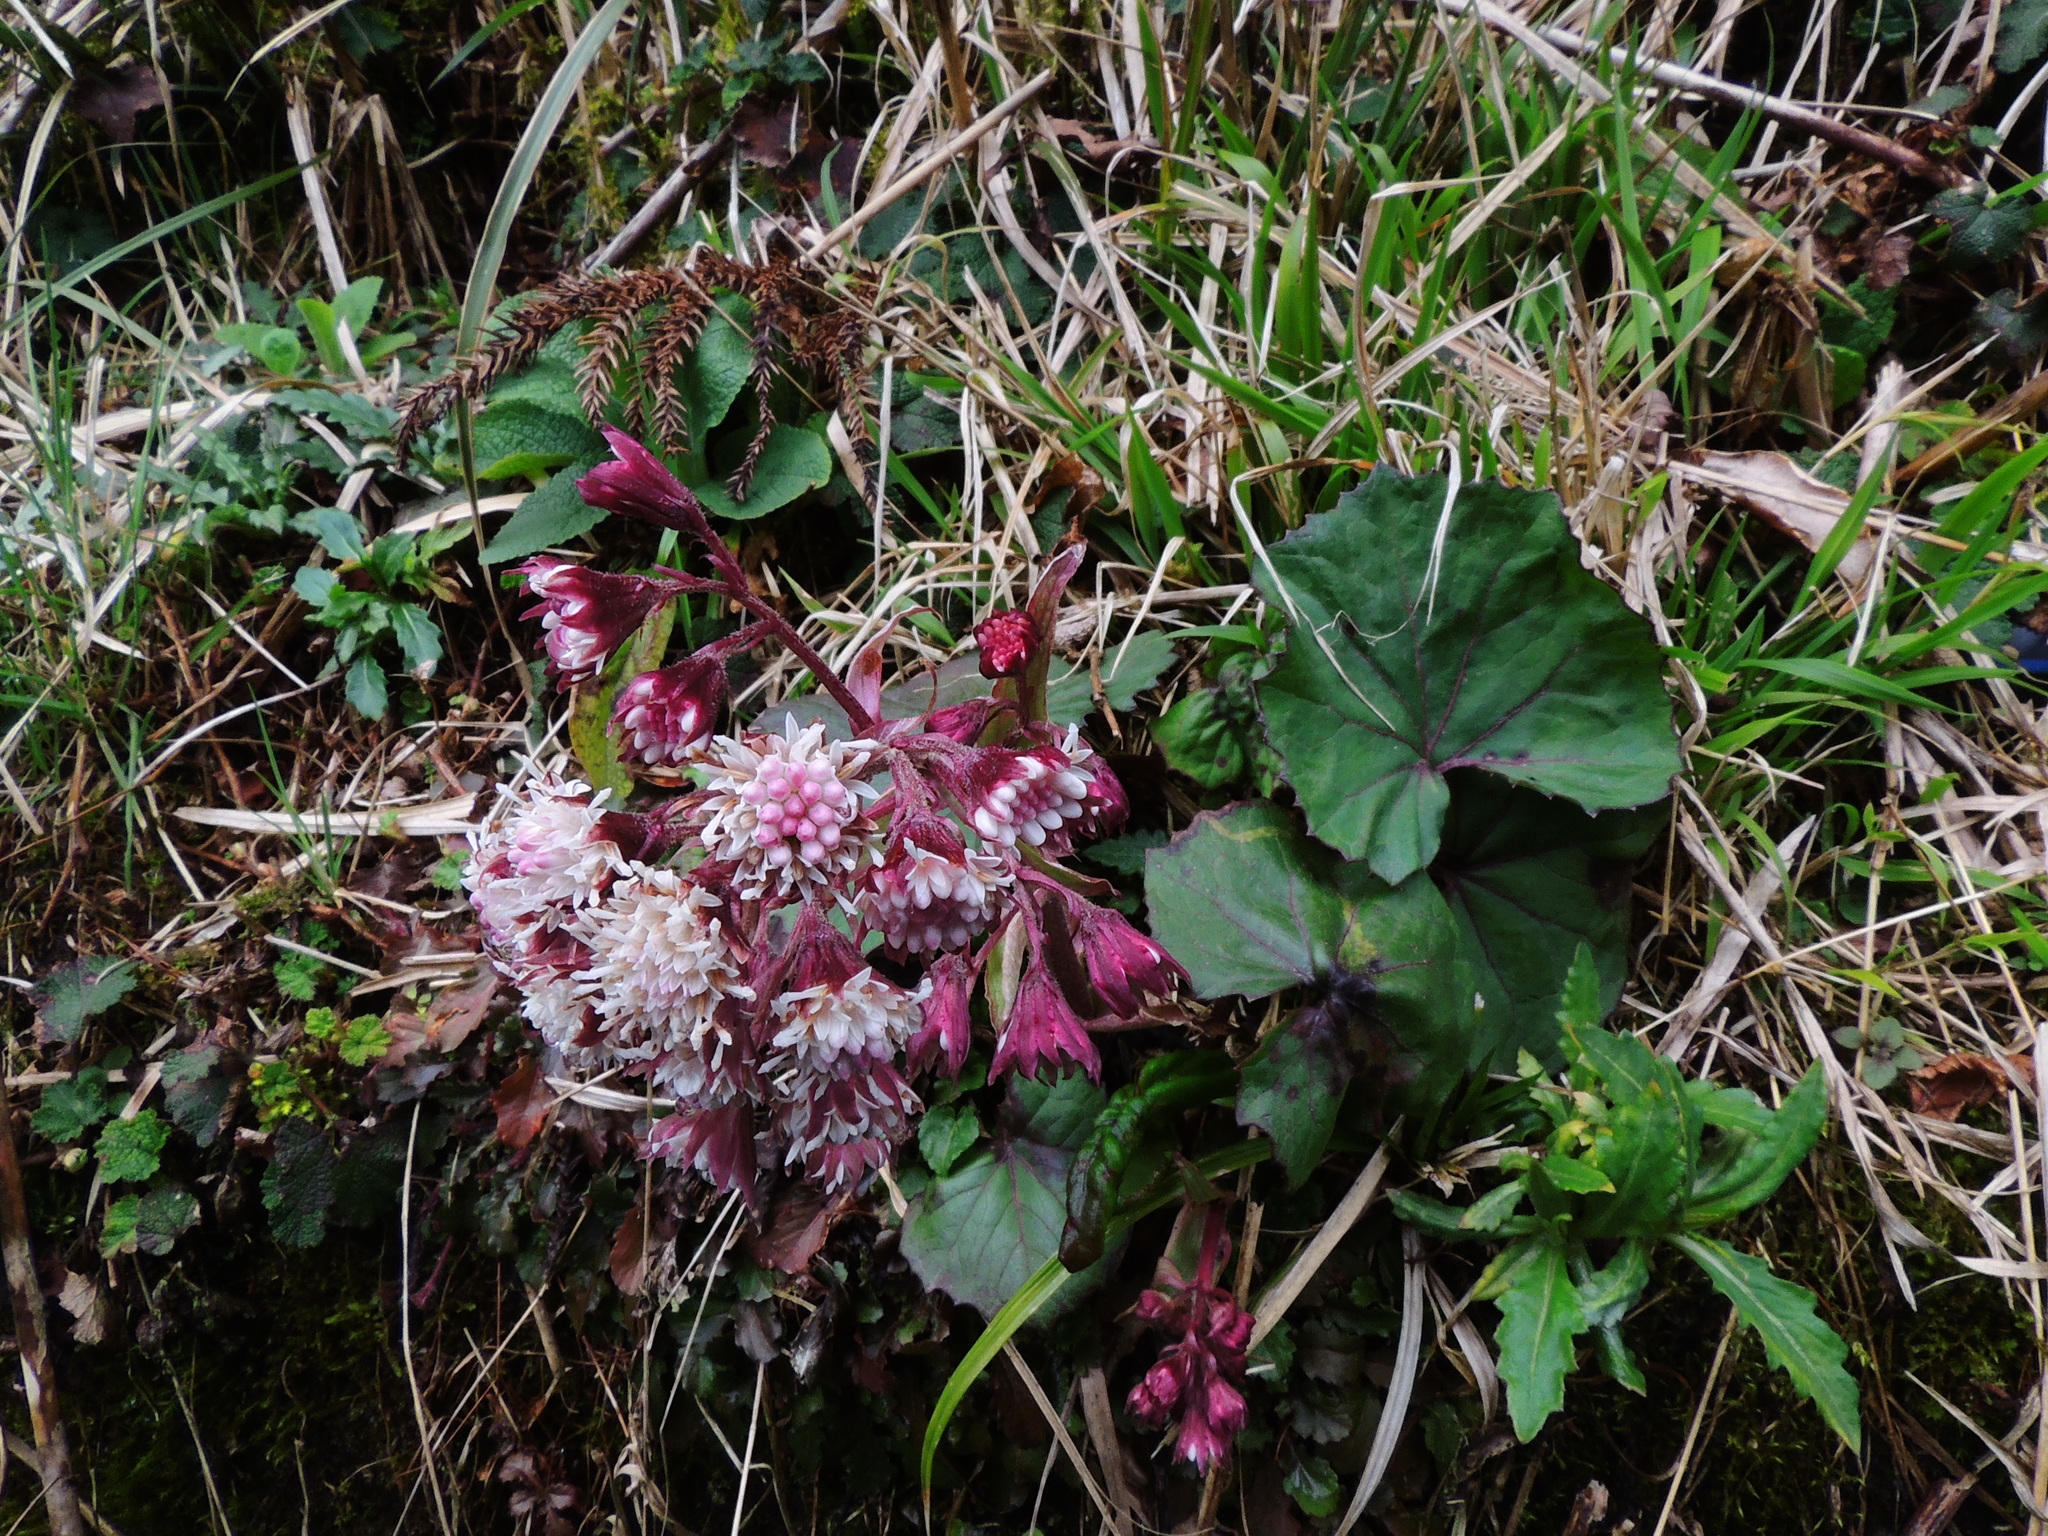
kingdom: Plantae
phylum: Tracheophyta
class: Magnoliopsida
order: Asterales
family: Asteraceae
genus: Petasites
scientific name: Petasites formosanus
